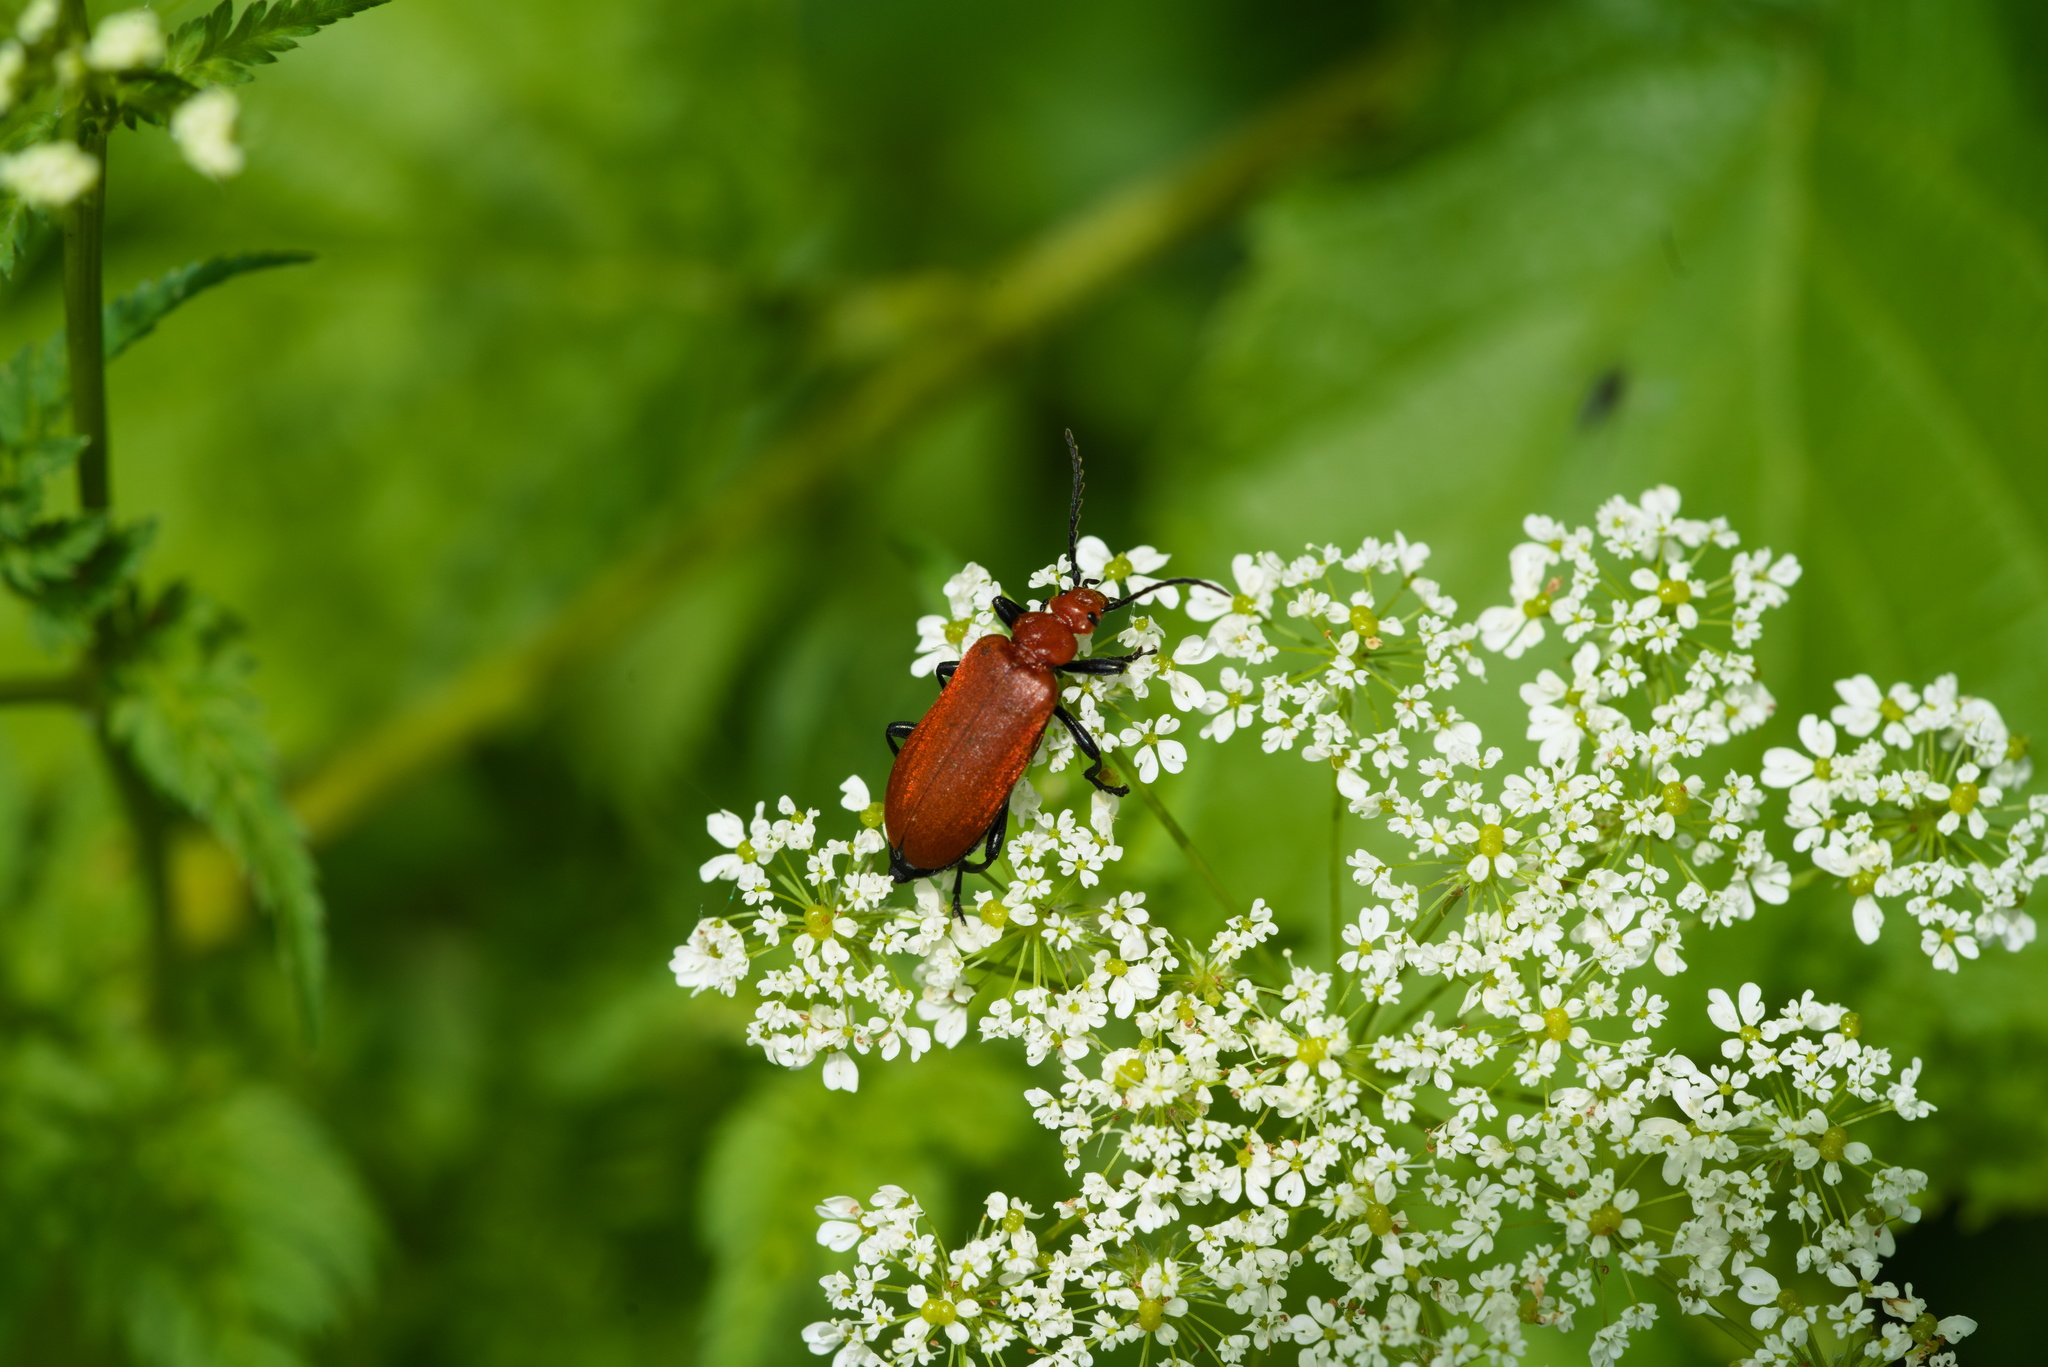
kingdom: Animalia
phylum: Arthropoda
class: Insecta
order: Coleoptera
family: Pyrochroidae
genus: Pyrochroa
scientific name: Pyrochroa serraticornis
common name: Red-headed cardinal beetle
